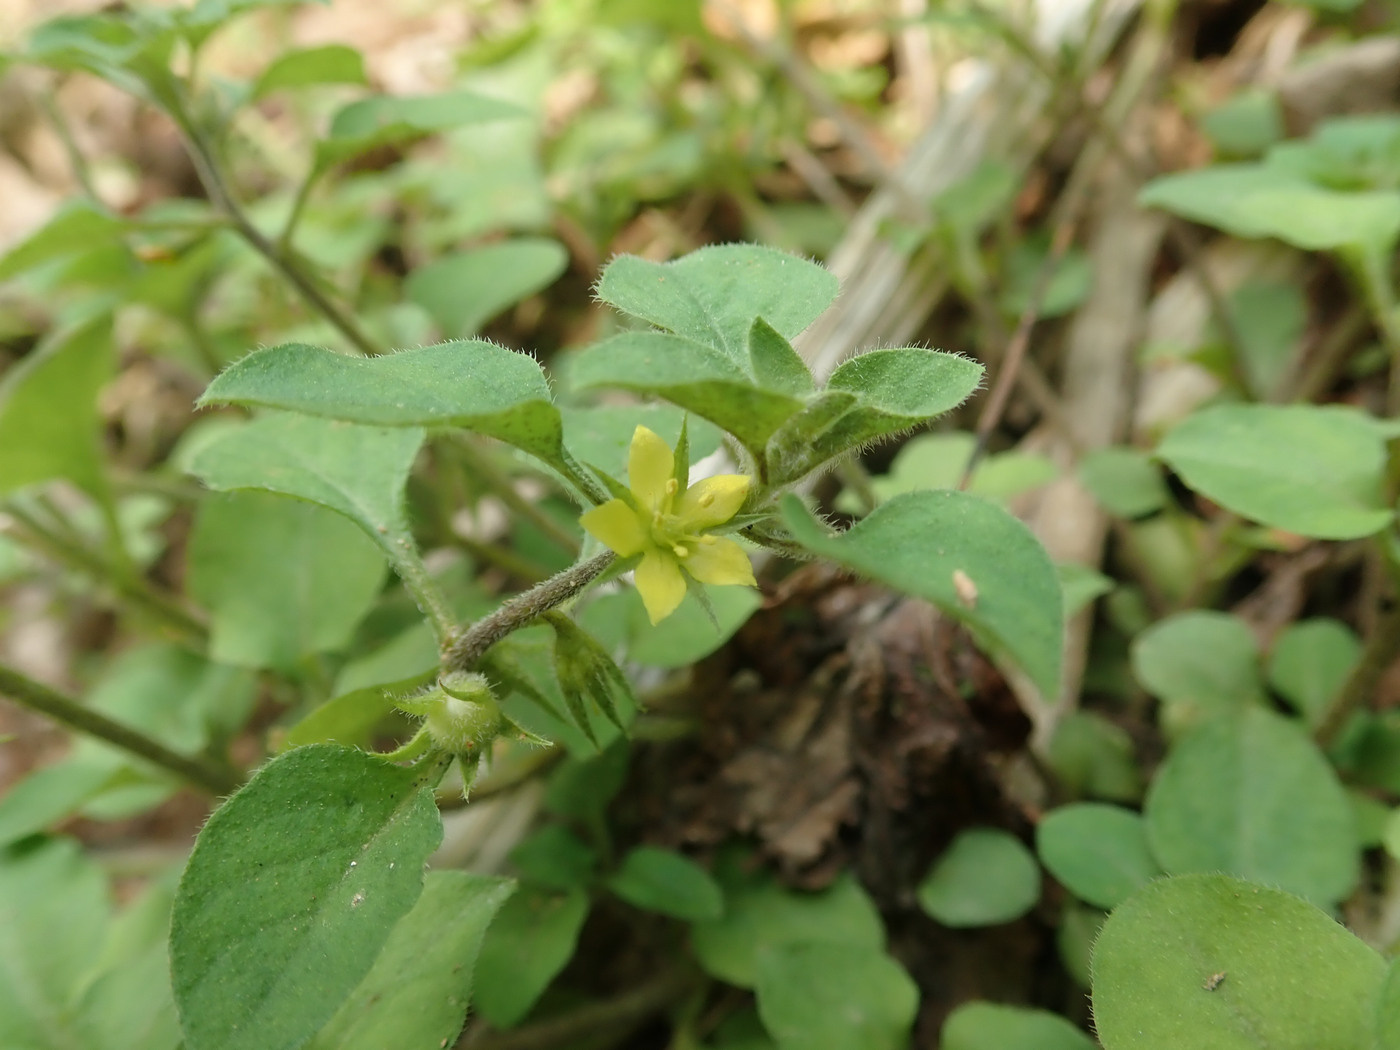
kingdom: Plantae
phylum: Tracheophyta
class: Magnoliopsida
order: Ericales
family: Primulaceae
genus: Lysimachia
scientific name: Lysimachia japonica
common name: Japanese yellow loosestrife
